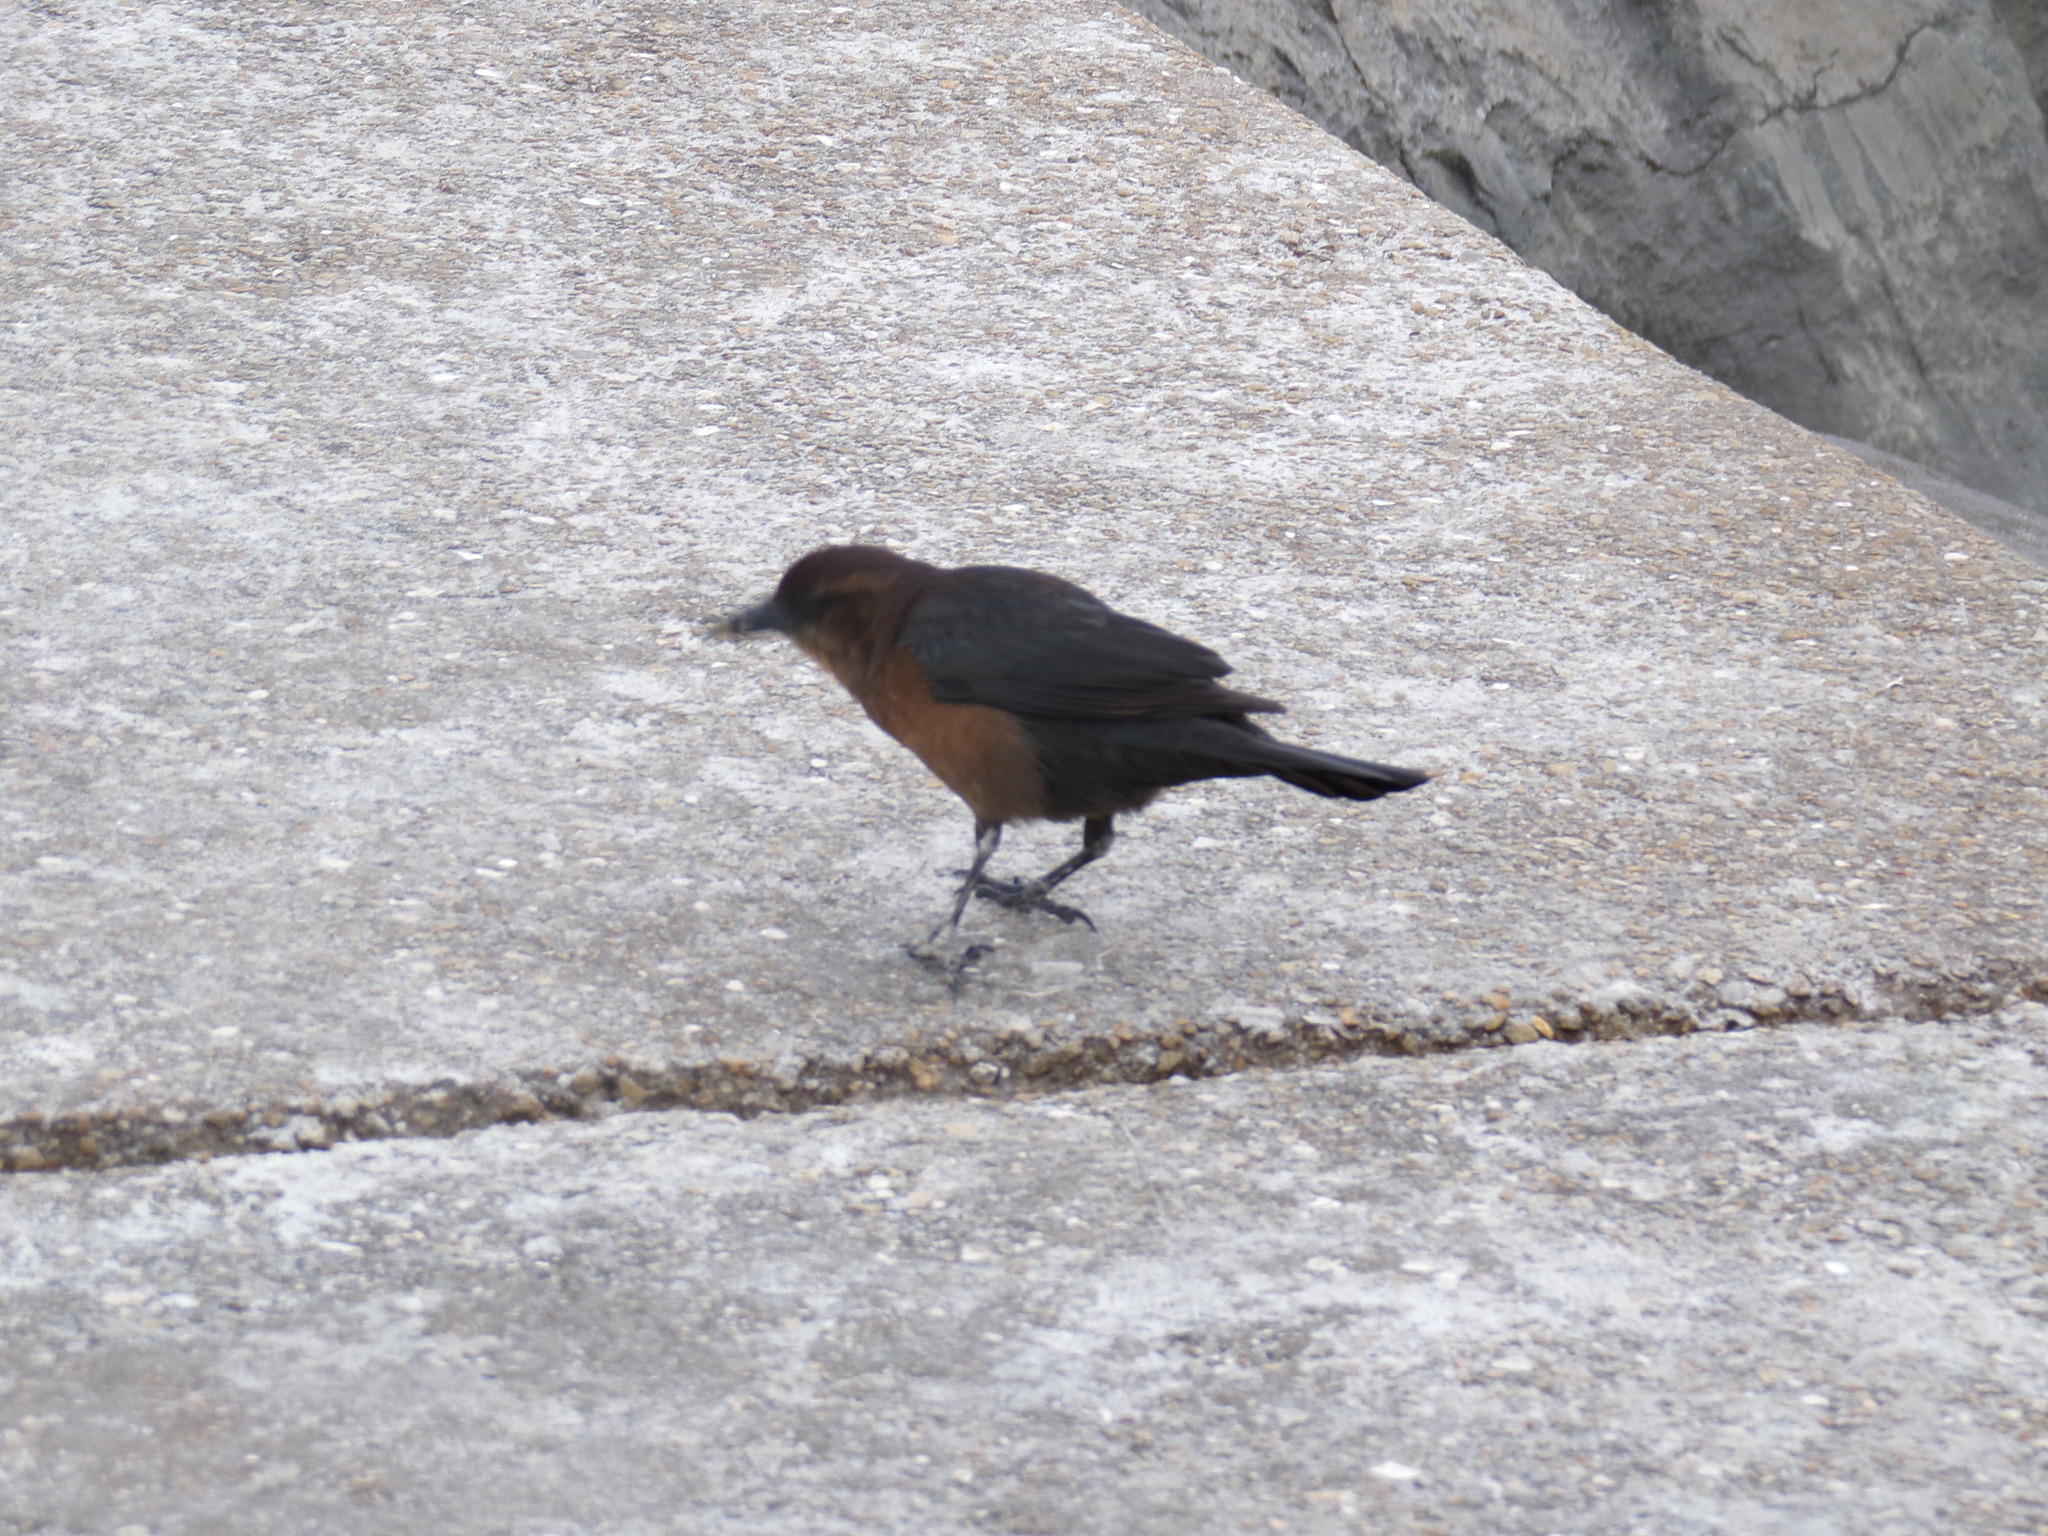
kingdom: Animalia
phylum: Chordata
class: Aves
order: Passeriformes
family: Icteridae
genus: Quiscalus
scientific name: Quiscalus major
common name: Boat-tailed grackle
